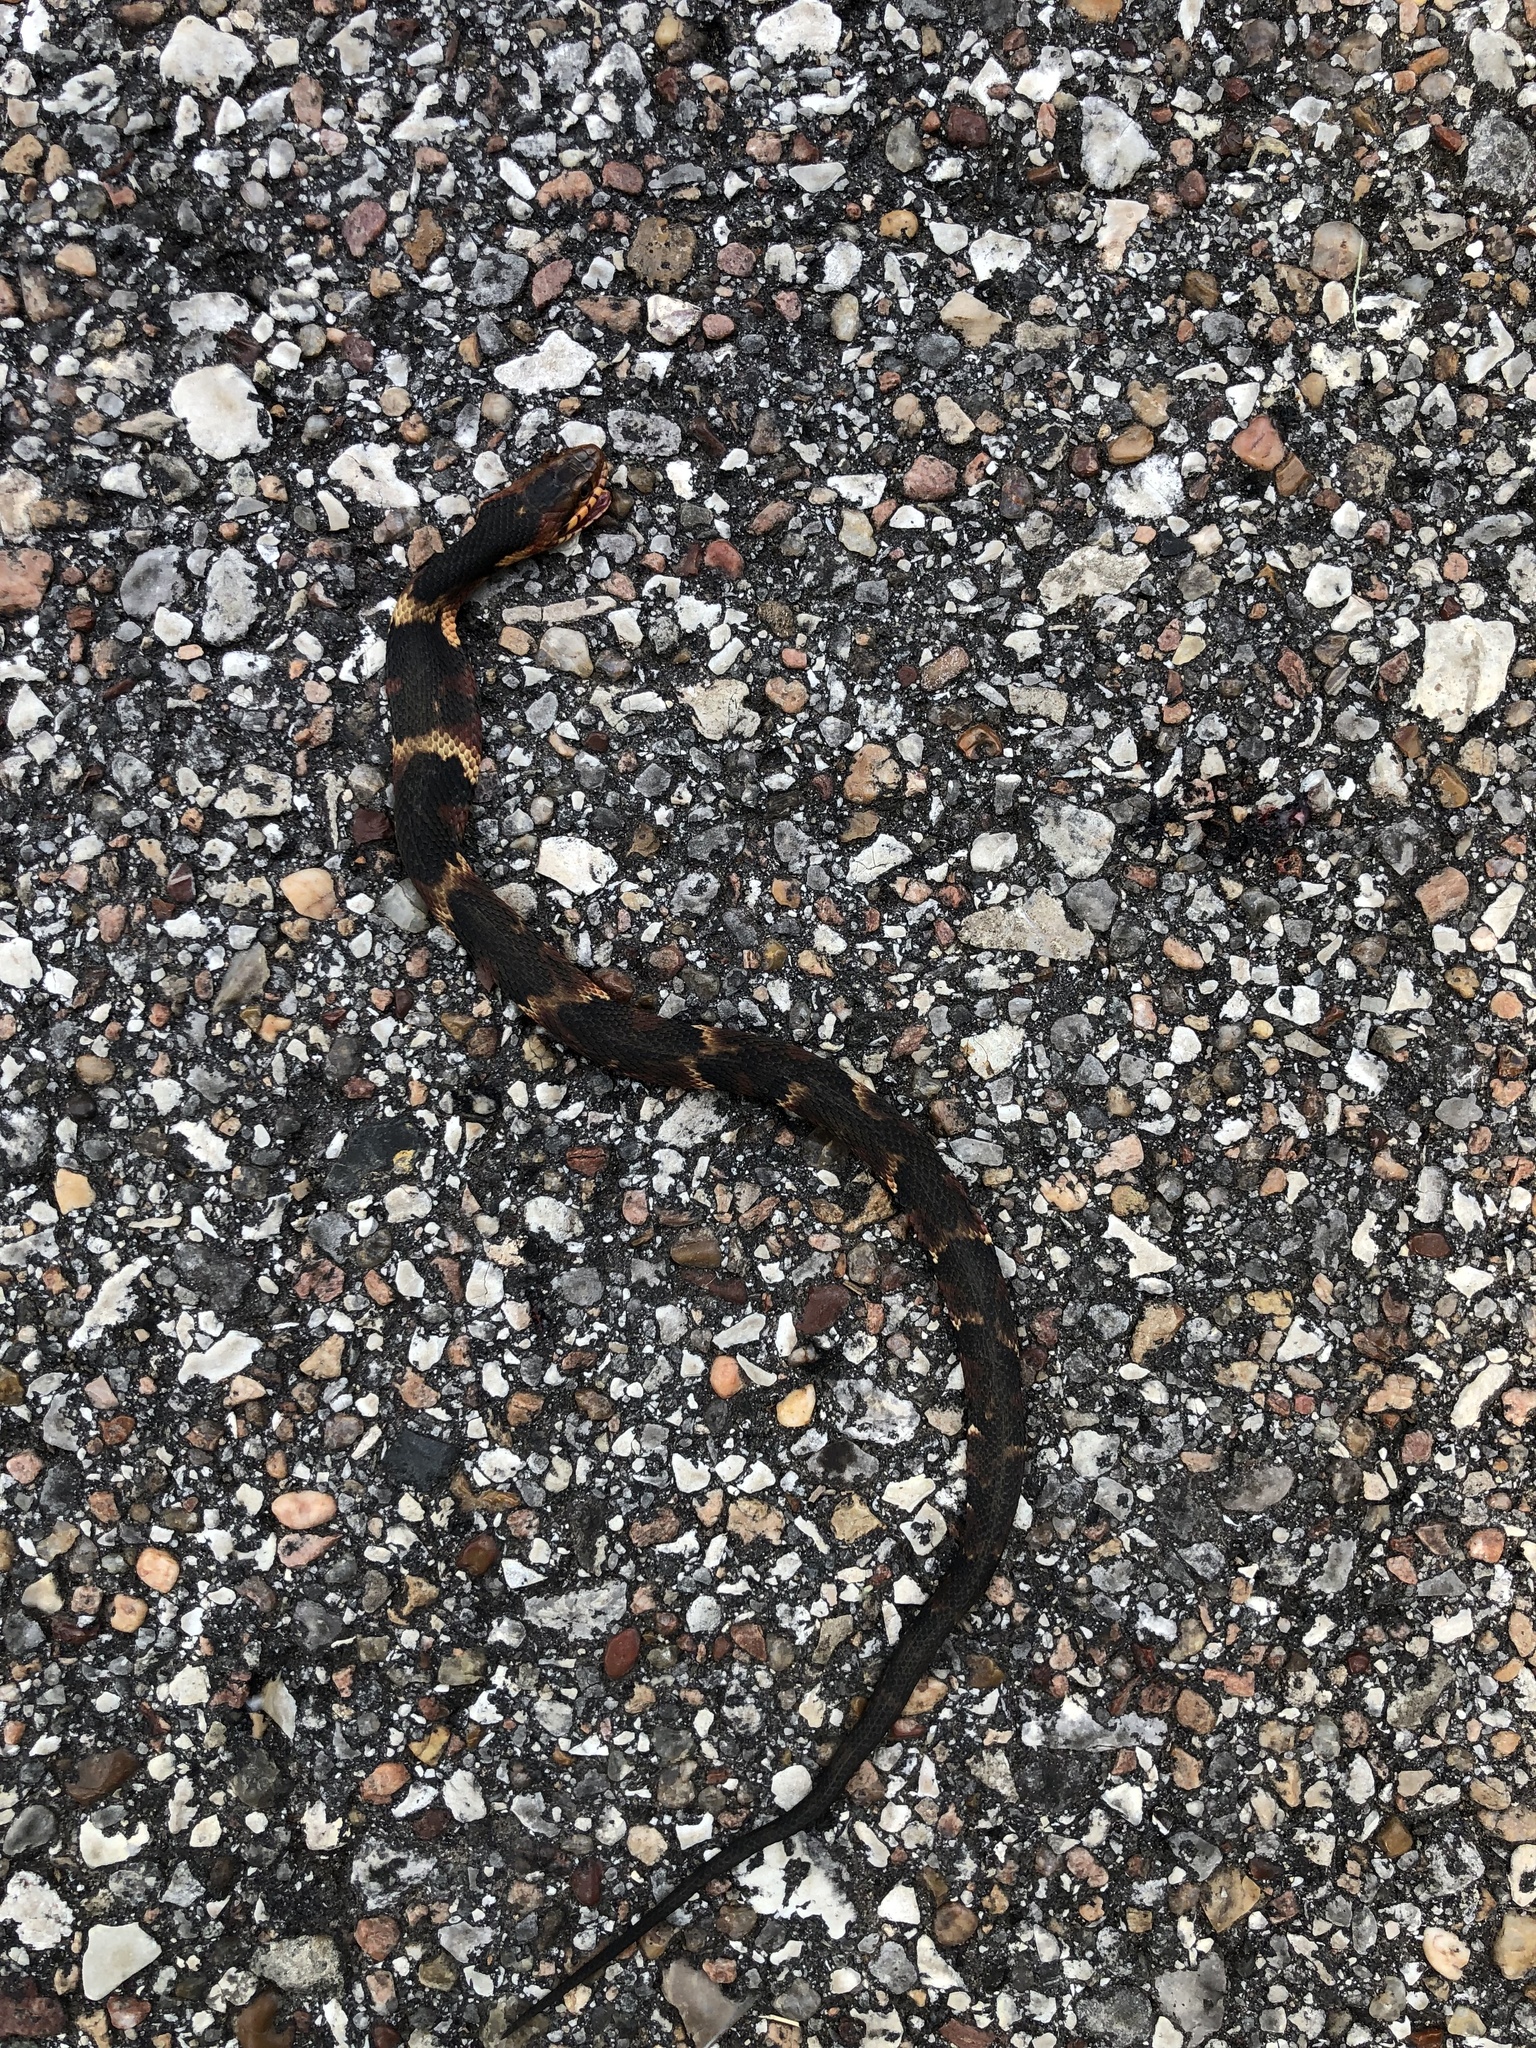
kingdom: Animalia
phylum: Chordata
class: Squamata
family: Colubridae
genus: Nerodia
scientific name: Nerodia fasciata
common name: Southern water snake
